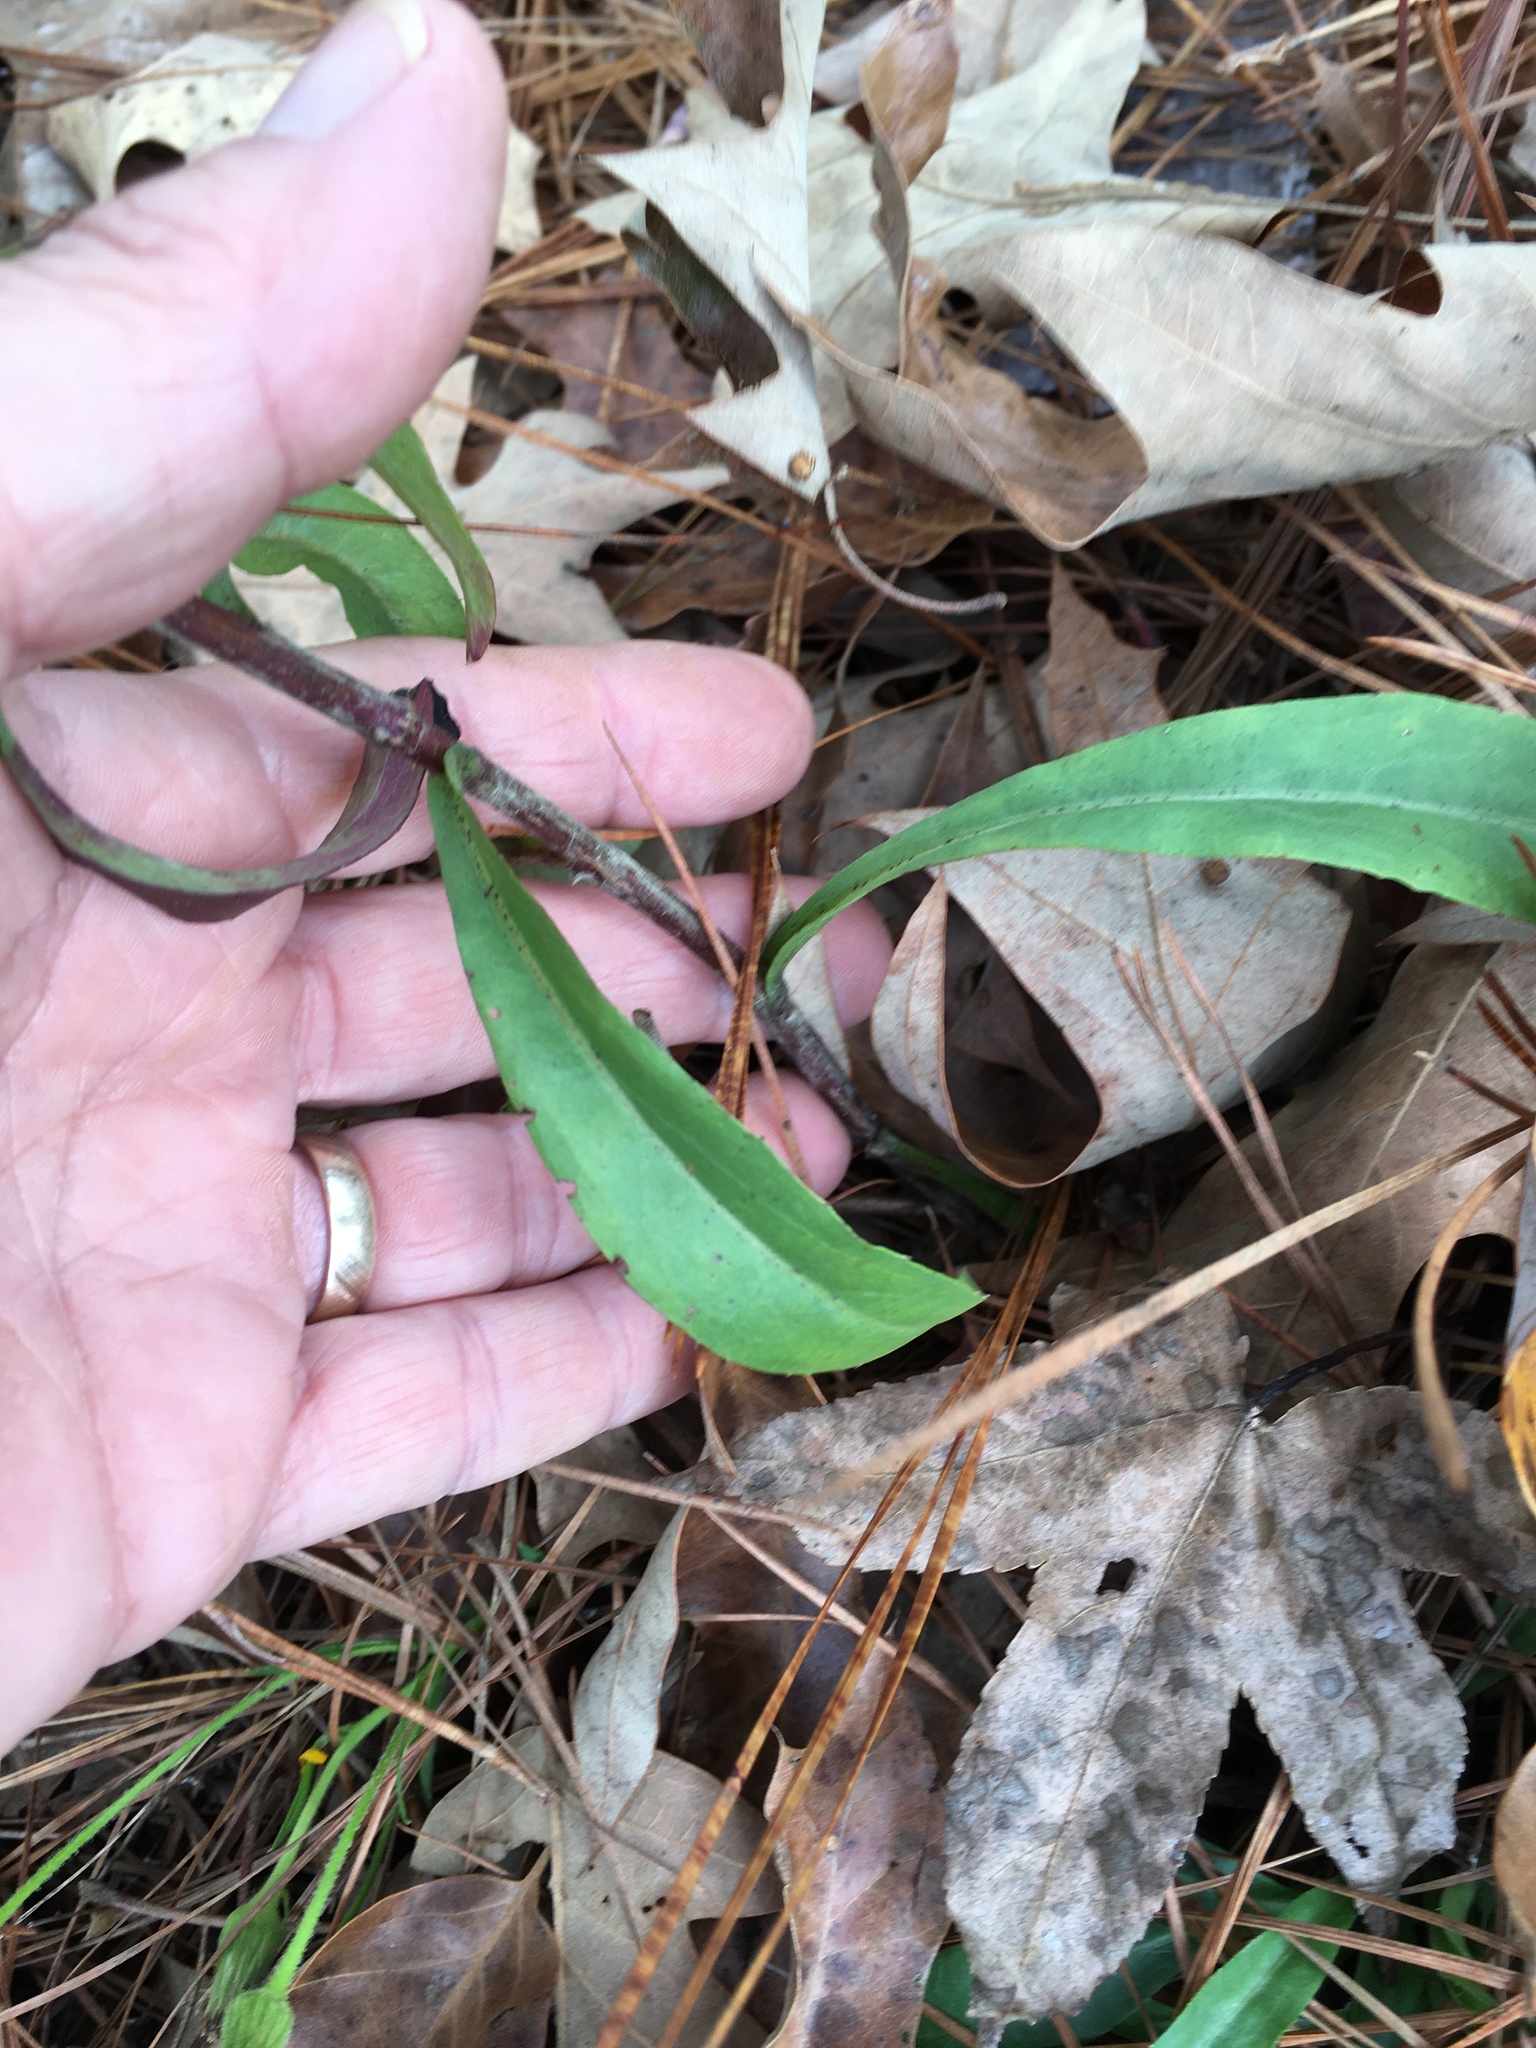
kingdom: Plantae
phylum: Tracheophyta
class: Magnoliopsida
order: Asterales
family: Asteraceae
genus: Chrysopsis
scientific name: Chrysopsis mariana
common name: Maryland golden-aster
